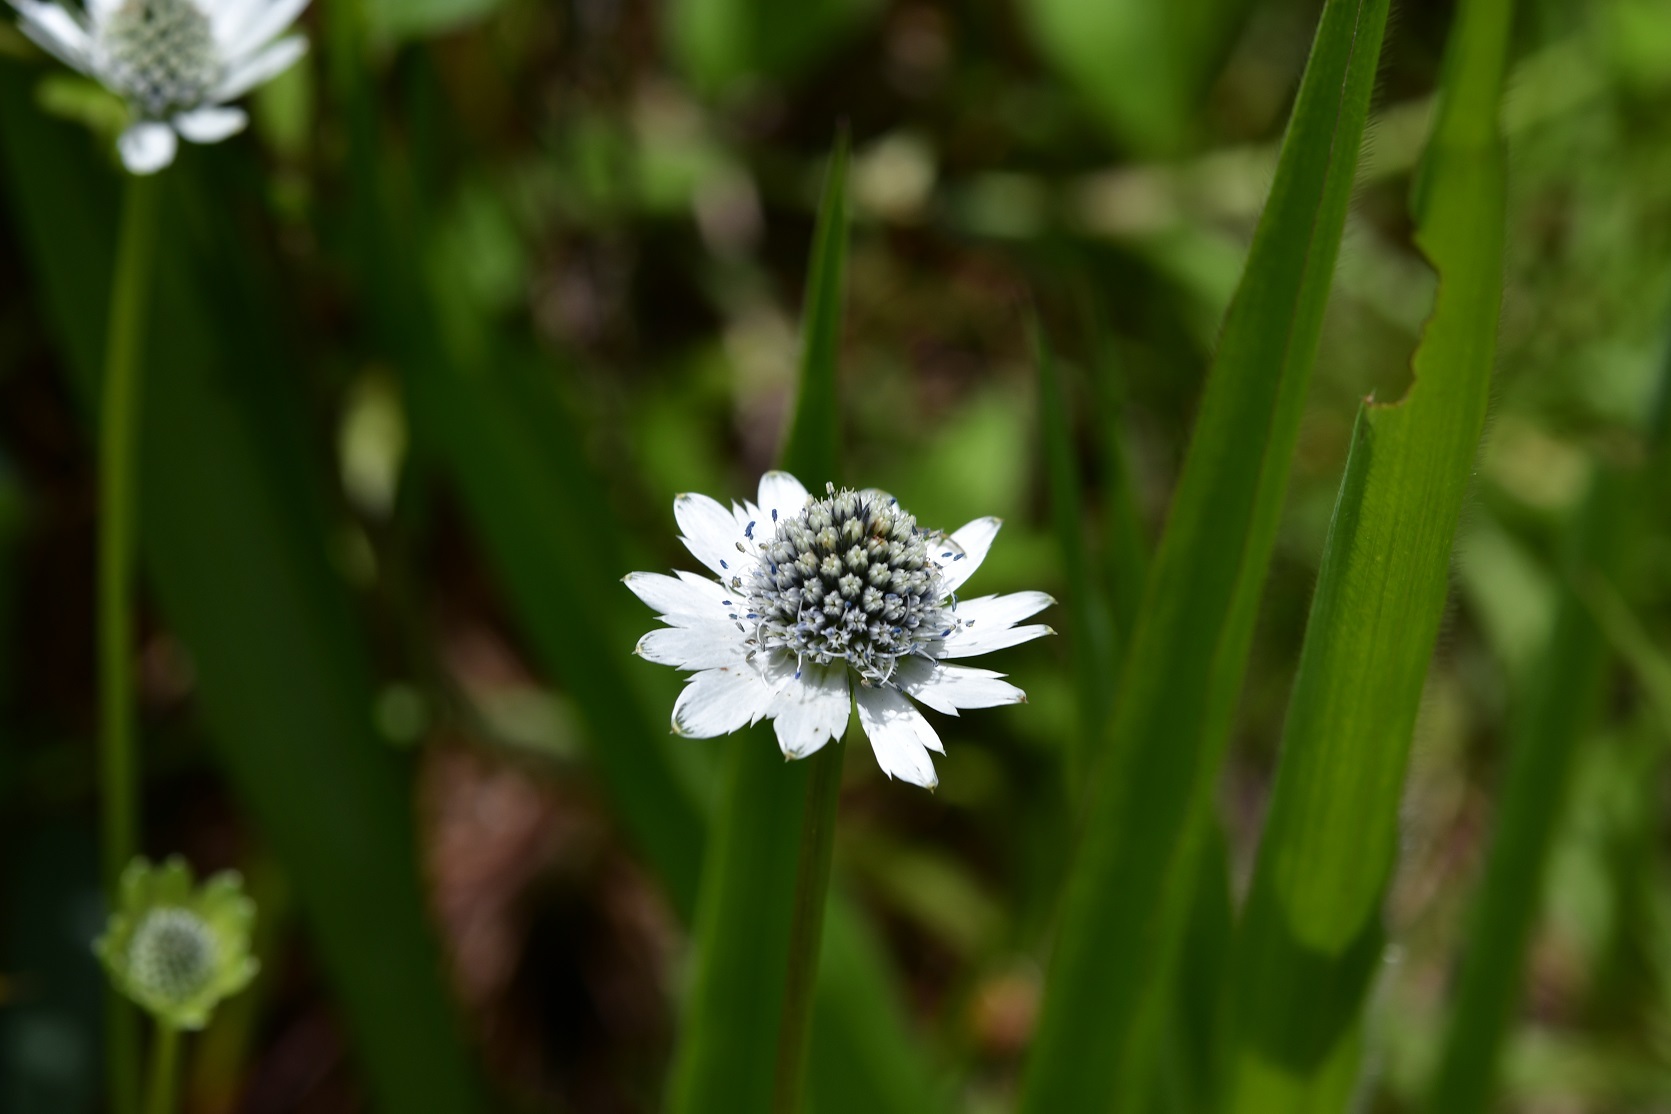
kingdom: Plantae
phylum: Tracheophyta
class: Magnoliopsida
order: Apiales
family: Apiaceae
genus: Eryngium
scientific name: Eryngium scaposum
